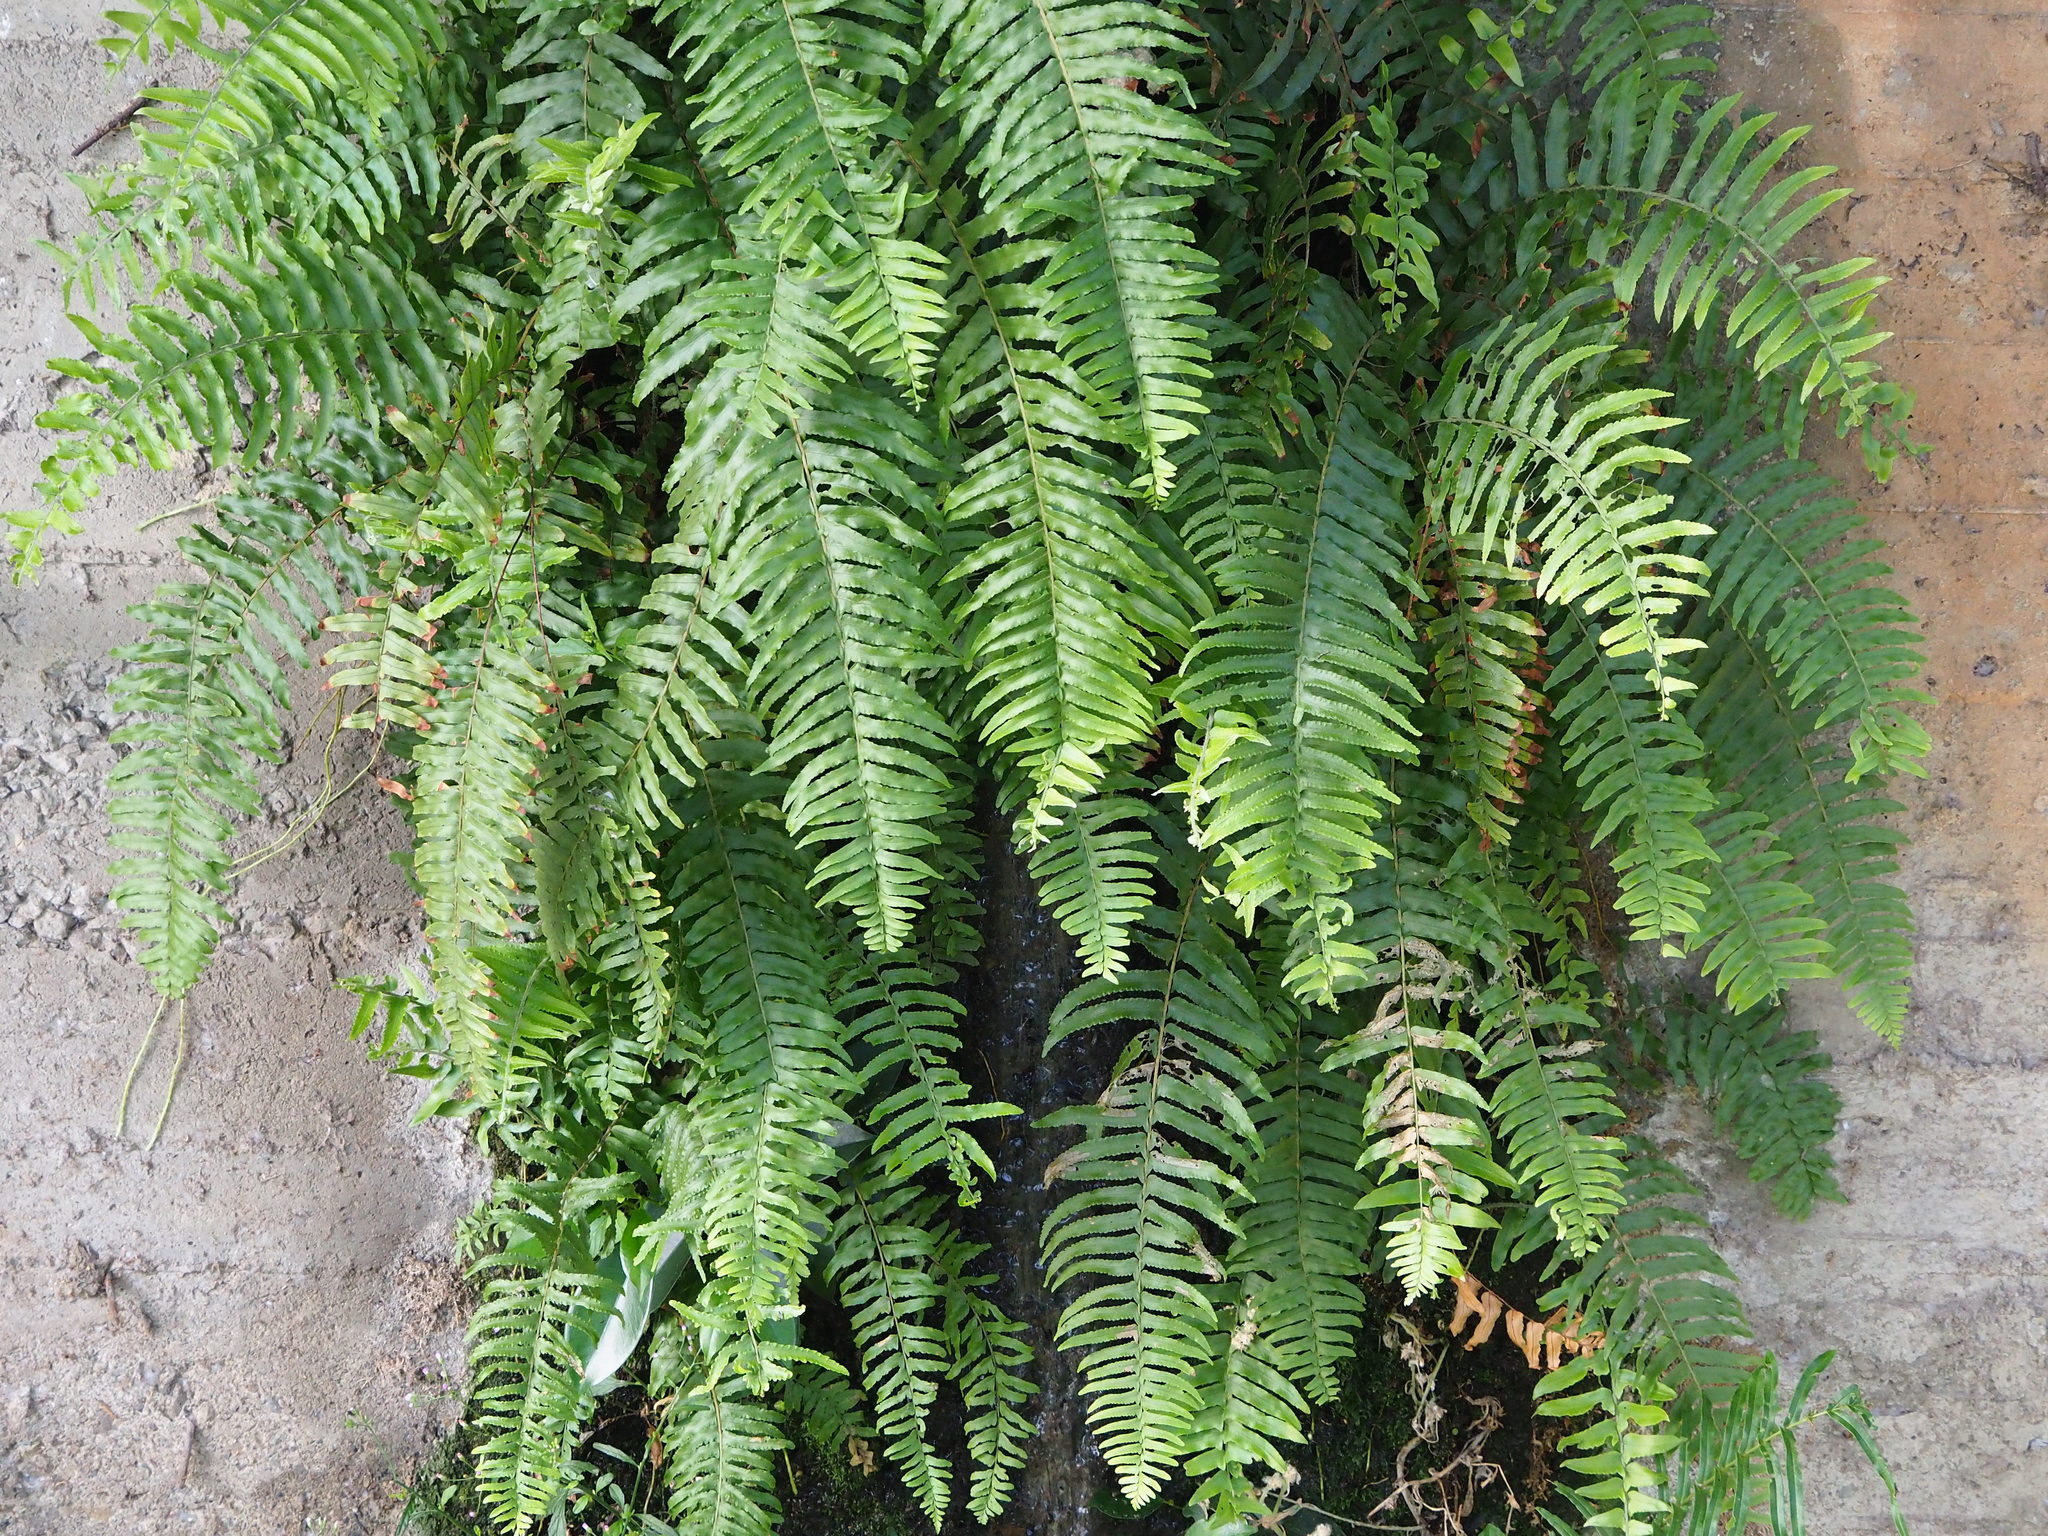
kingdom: Plantae
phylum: Tracheophyta
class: Polypodiopsida
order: Polypodiales
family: Nephrolepidaceae
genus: Nephrolepis
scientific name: Nephrolepis cordifolia
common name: Narrow swordfern
